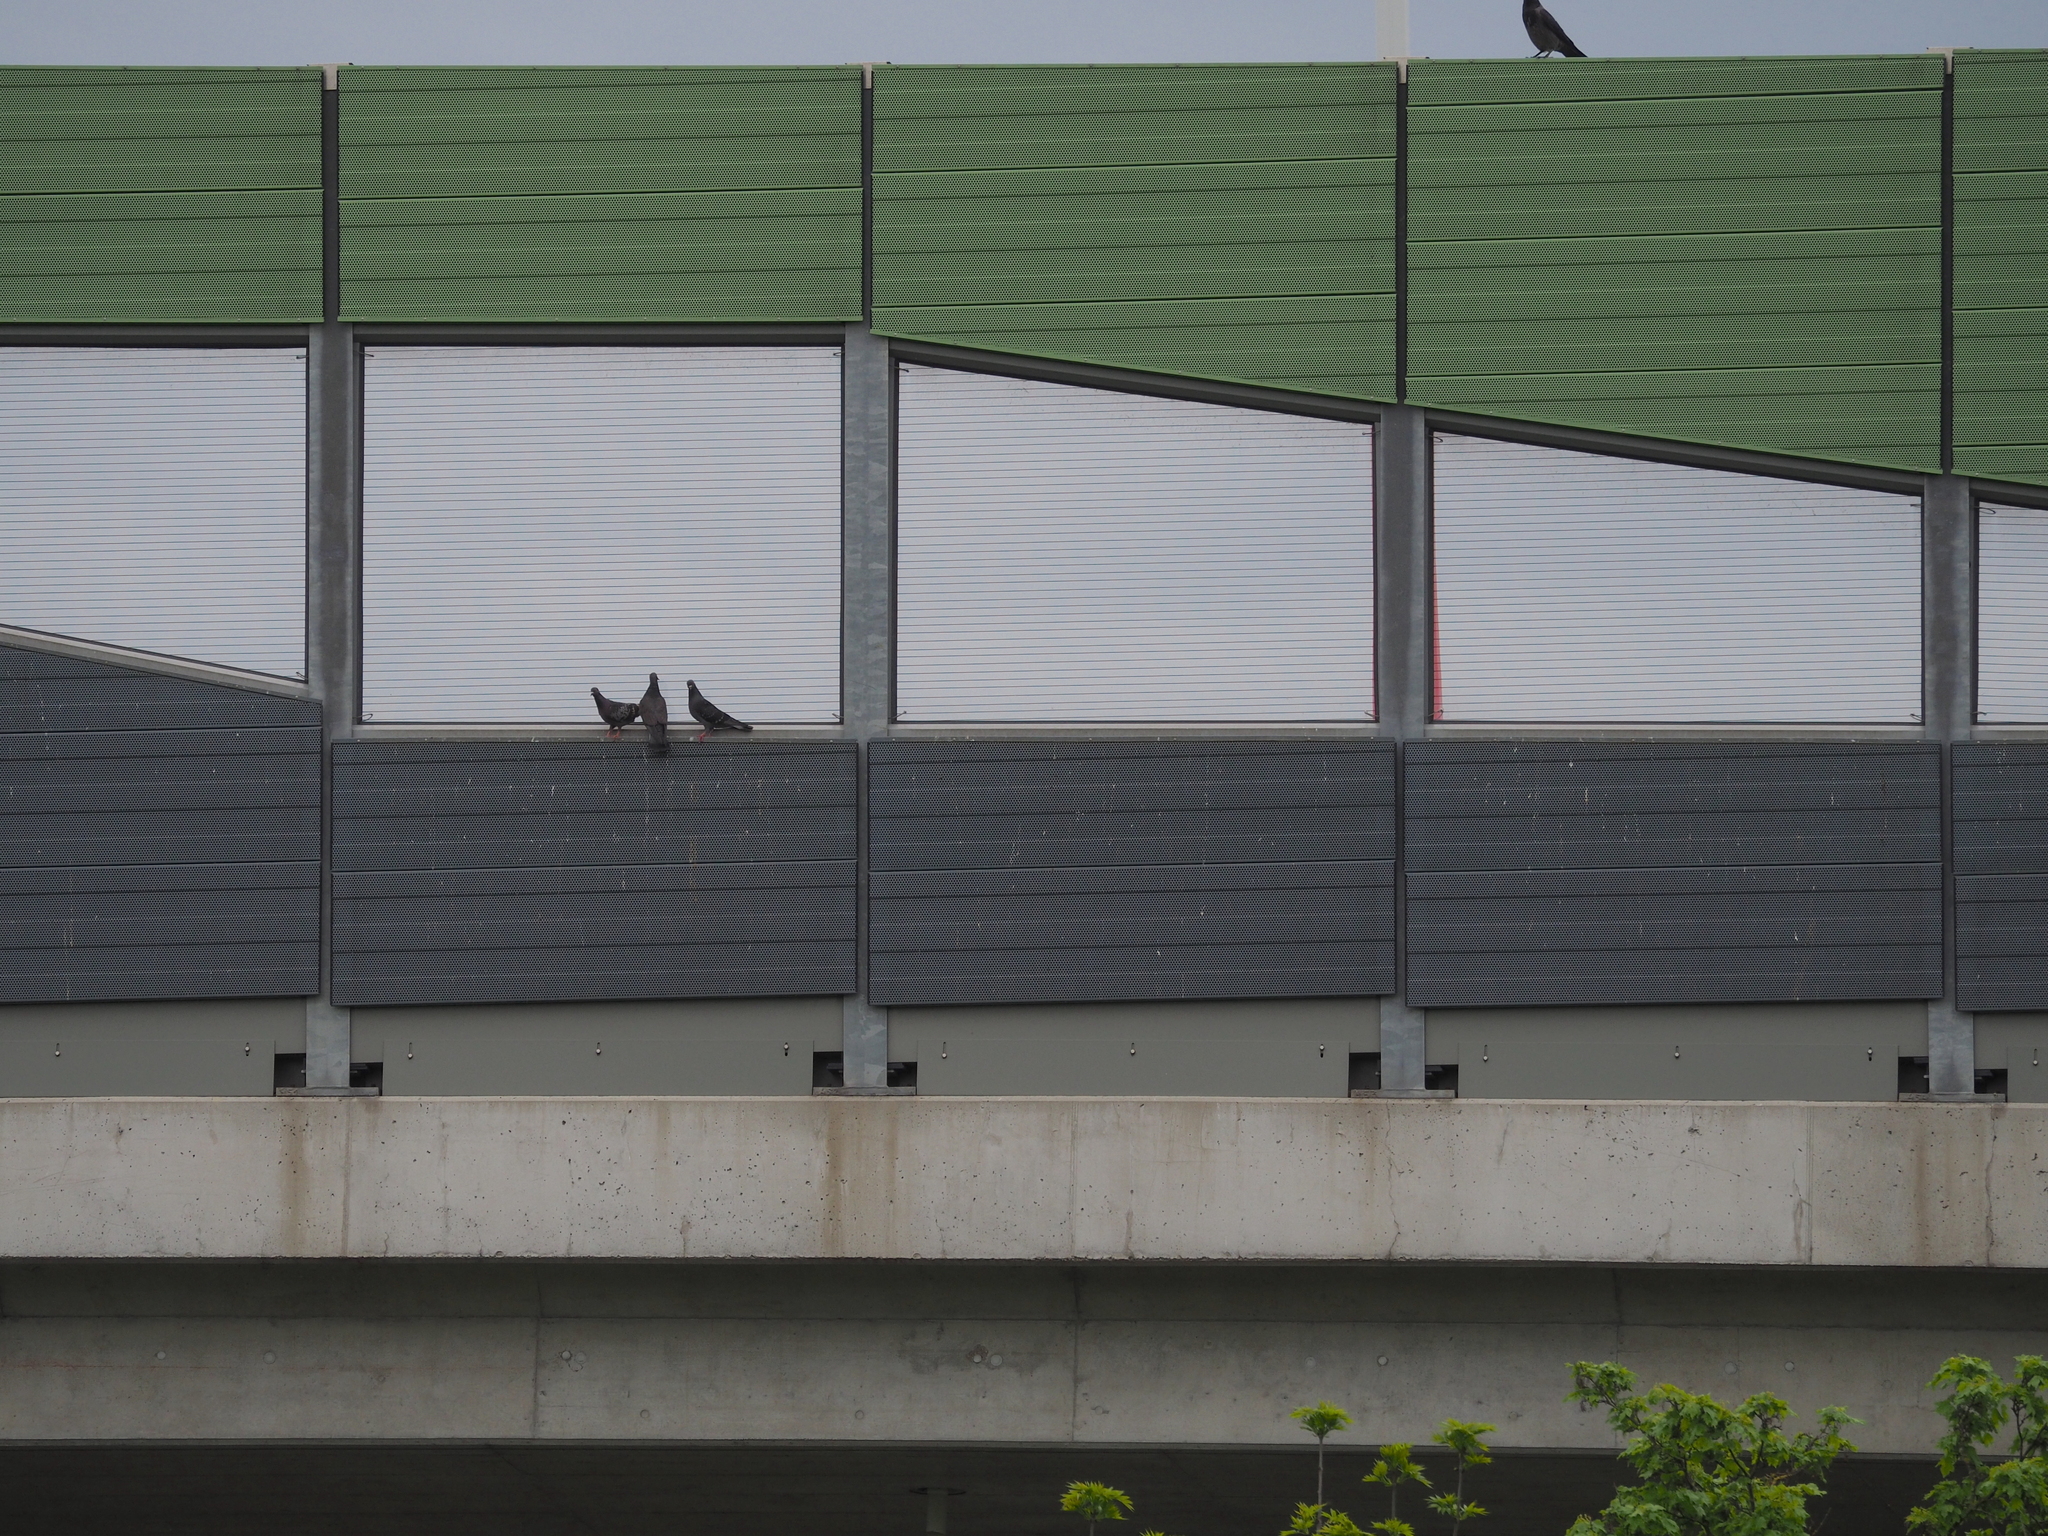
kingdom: Animalia
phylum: Chordata
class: Aves
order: Columbiformes
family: Columbidae
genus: Columba
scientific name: Columba livia
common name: Rock pigeon
